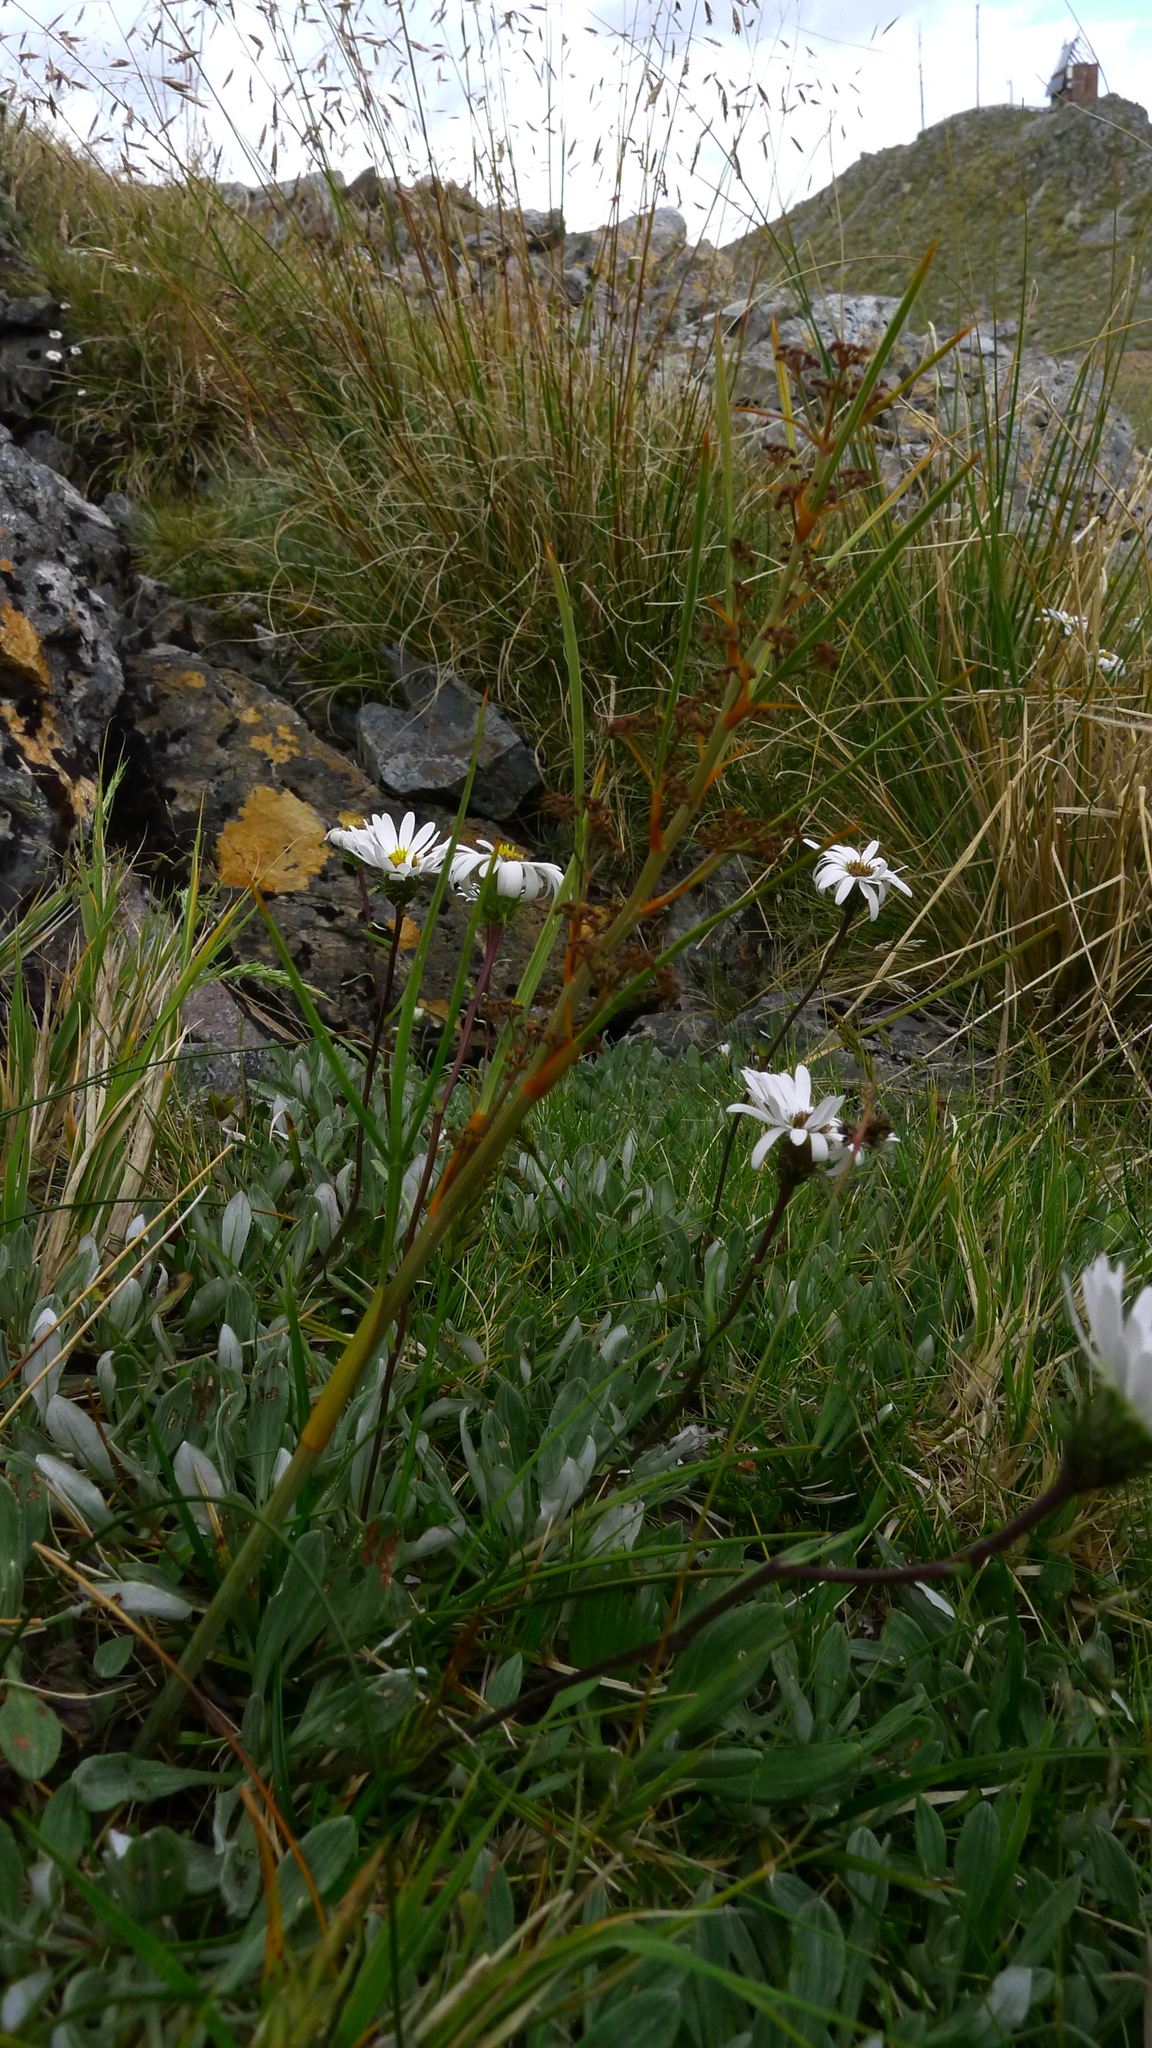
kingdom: Plantae
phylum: Tracheophyta
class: Magnoliopsida
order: Apiales
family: Apiaceae
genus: Aciphylla
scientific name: Aciphylla crenulata
